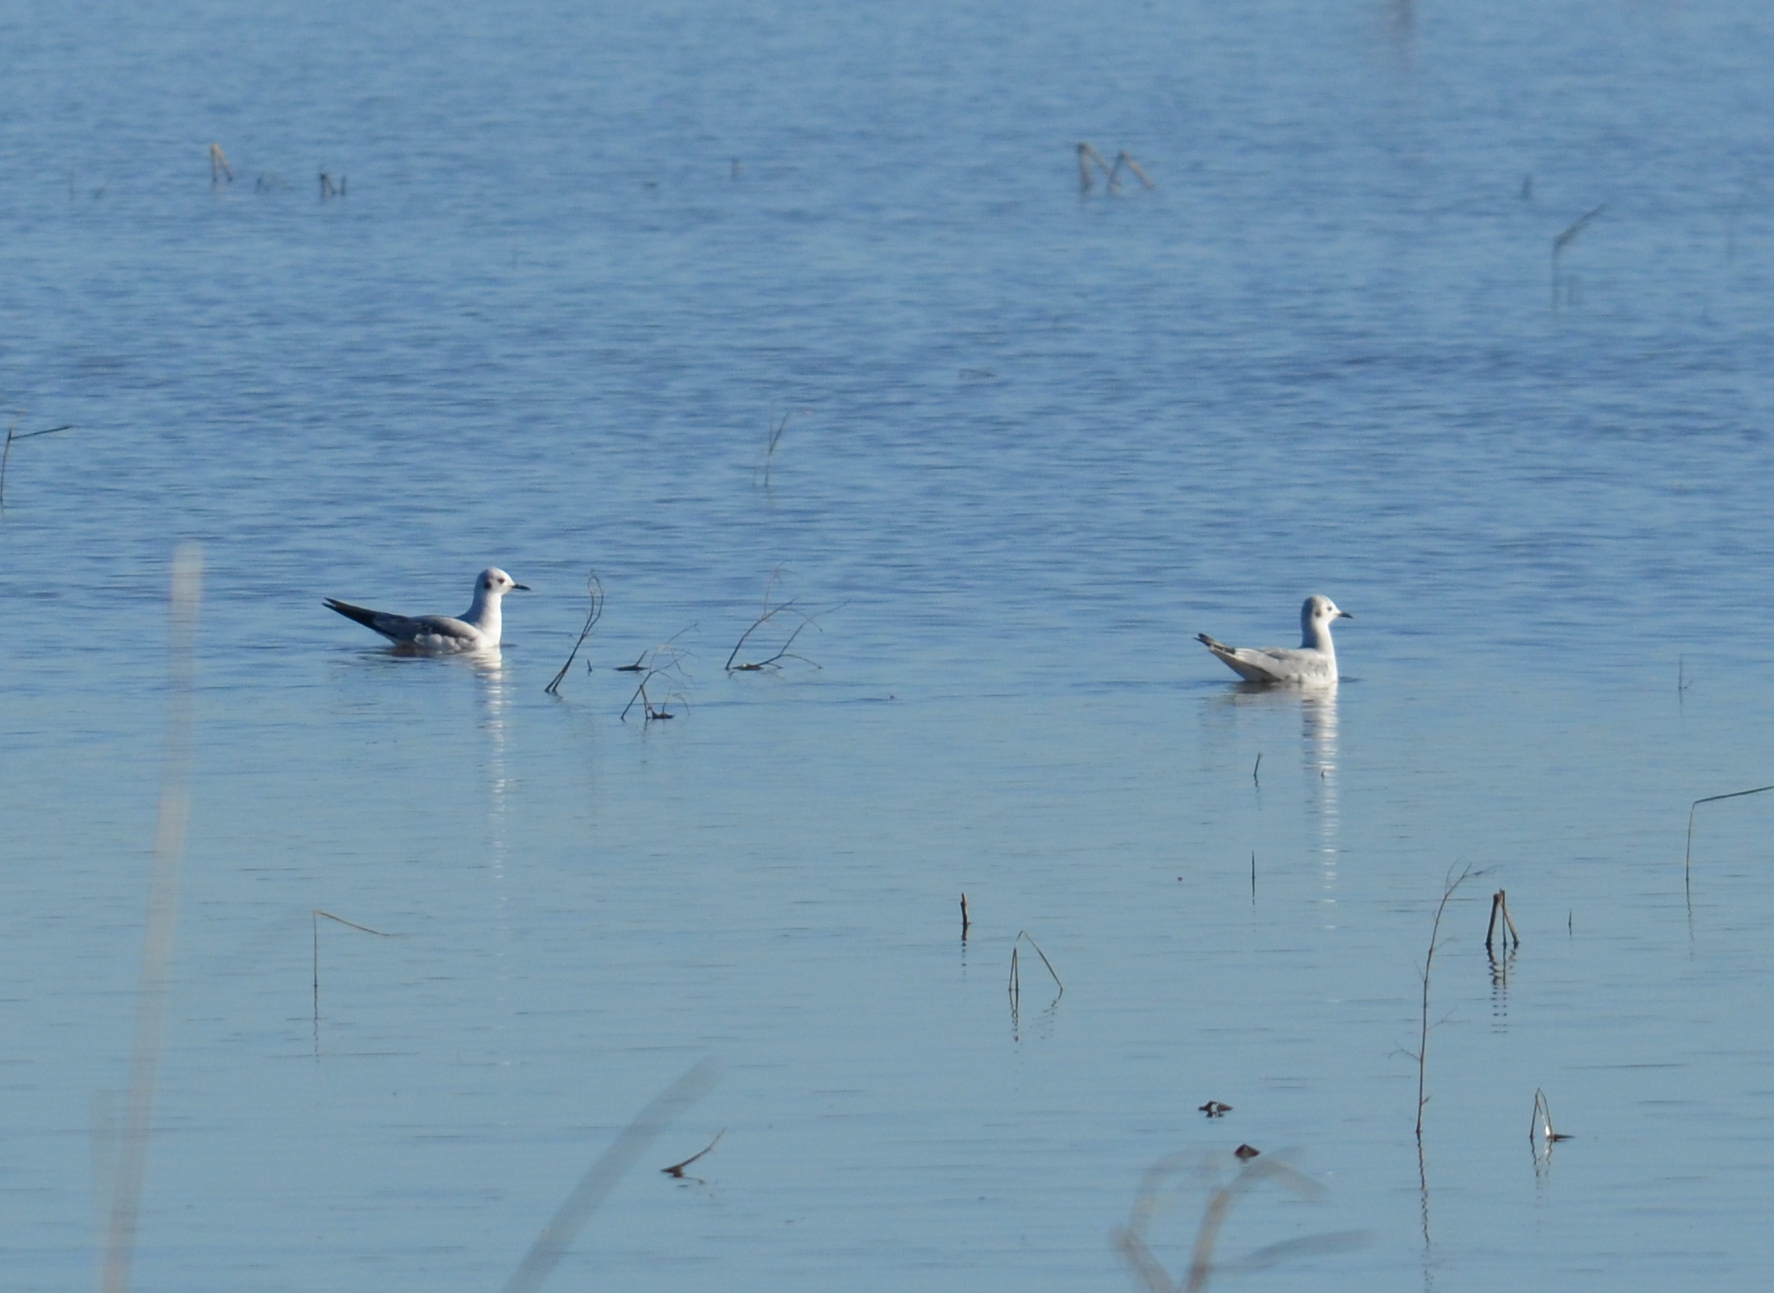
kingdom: Animalia
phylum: Chordata
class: Aves
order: Charadriiformes
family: Laridae
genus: Chroicocephalus
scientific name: Chroicocephalus philadelphia
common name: Bonaparte's gull
